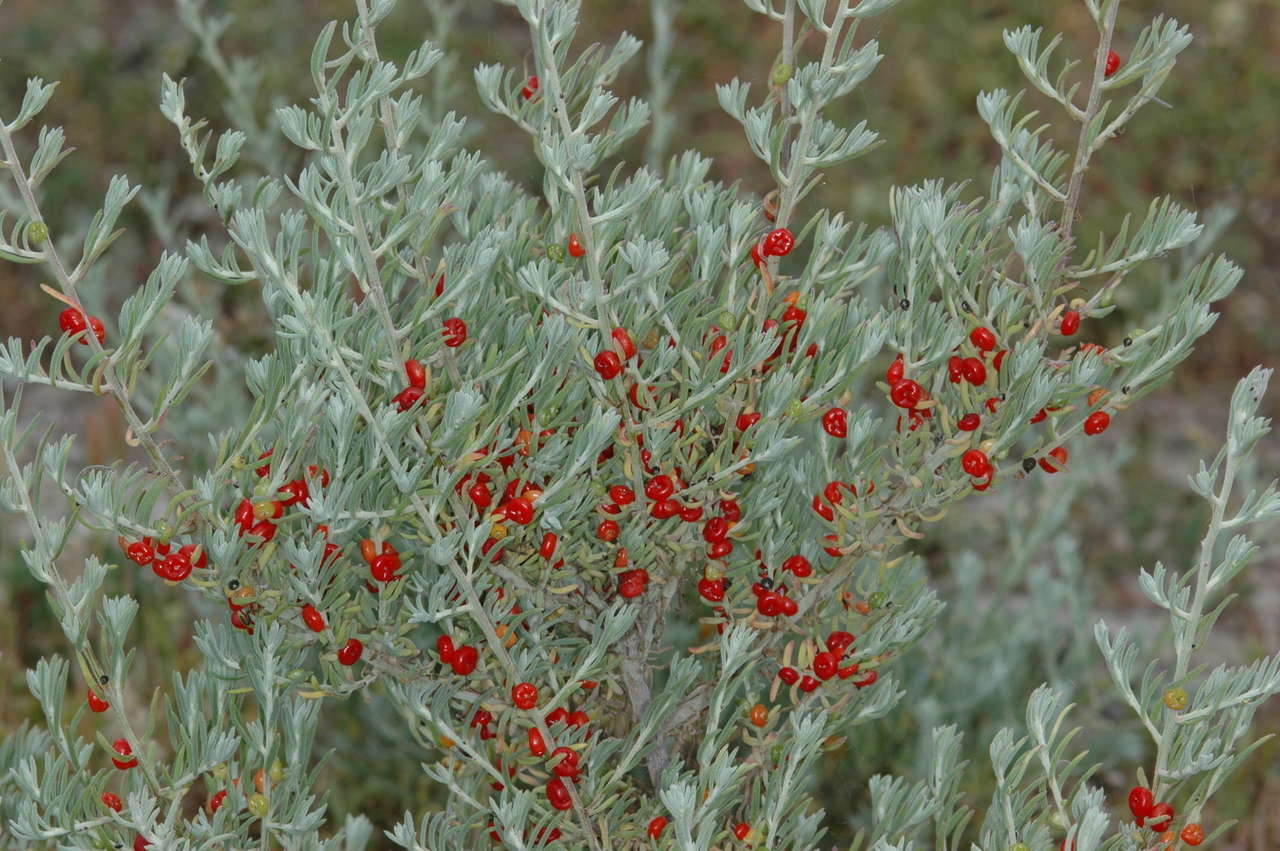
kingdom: Plantae
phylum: Tracheophyta
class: Magnoliopsida
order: Caryophyllales
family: Amaranthaceae
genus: Enchylaena
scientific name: Enchylaena tomentosa
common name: Ruby saltbush
